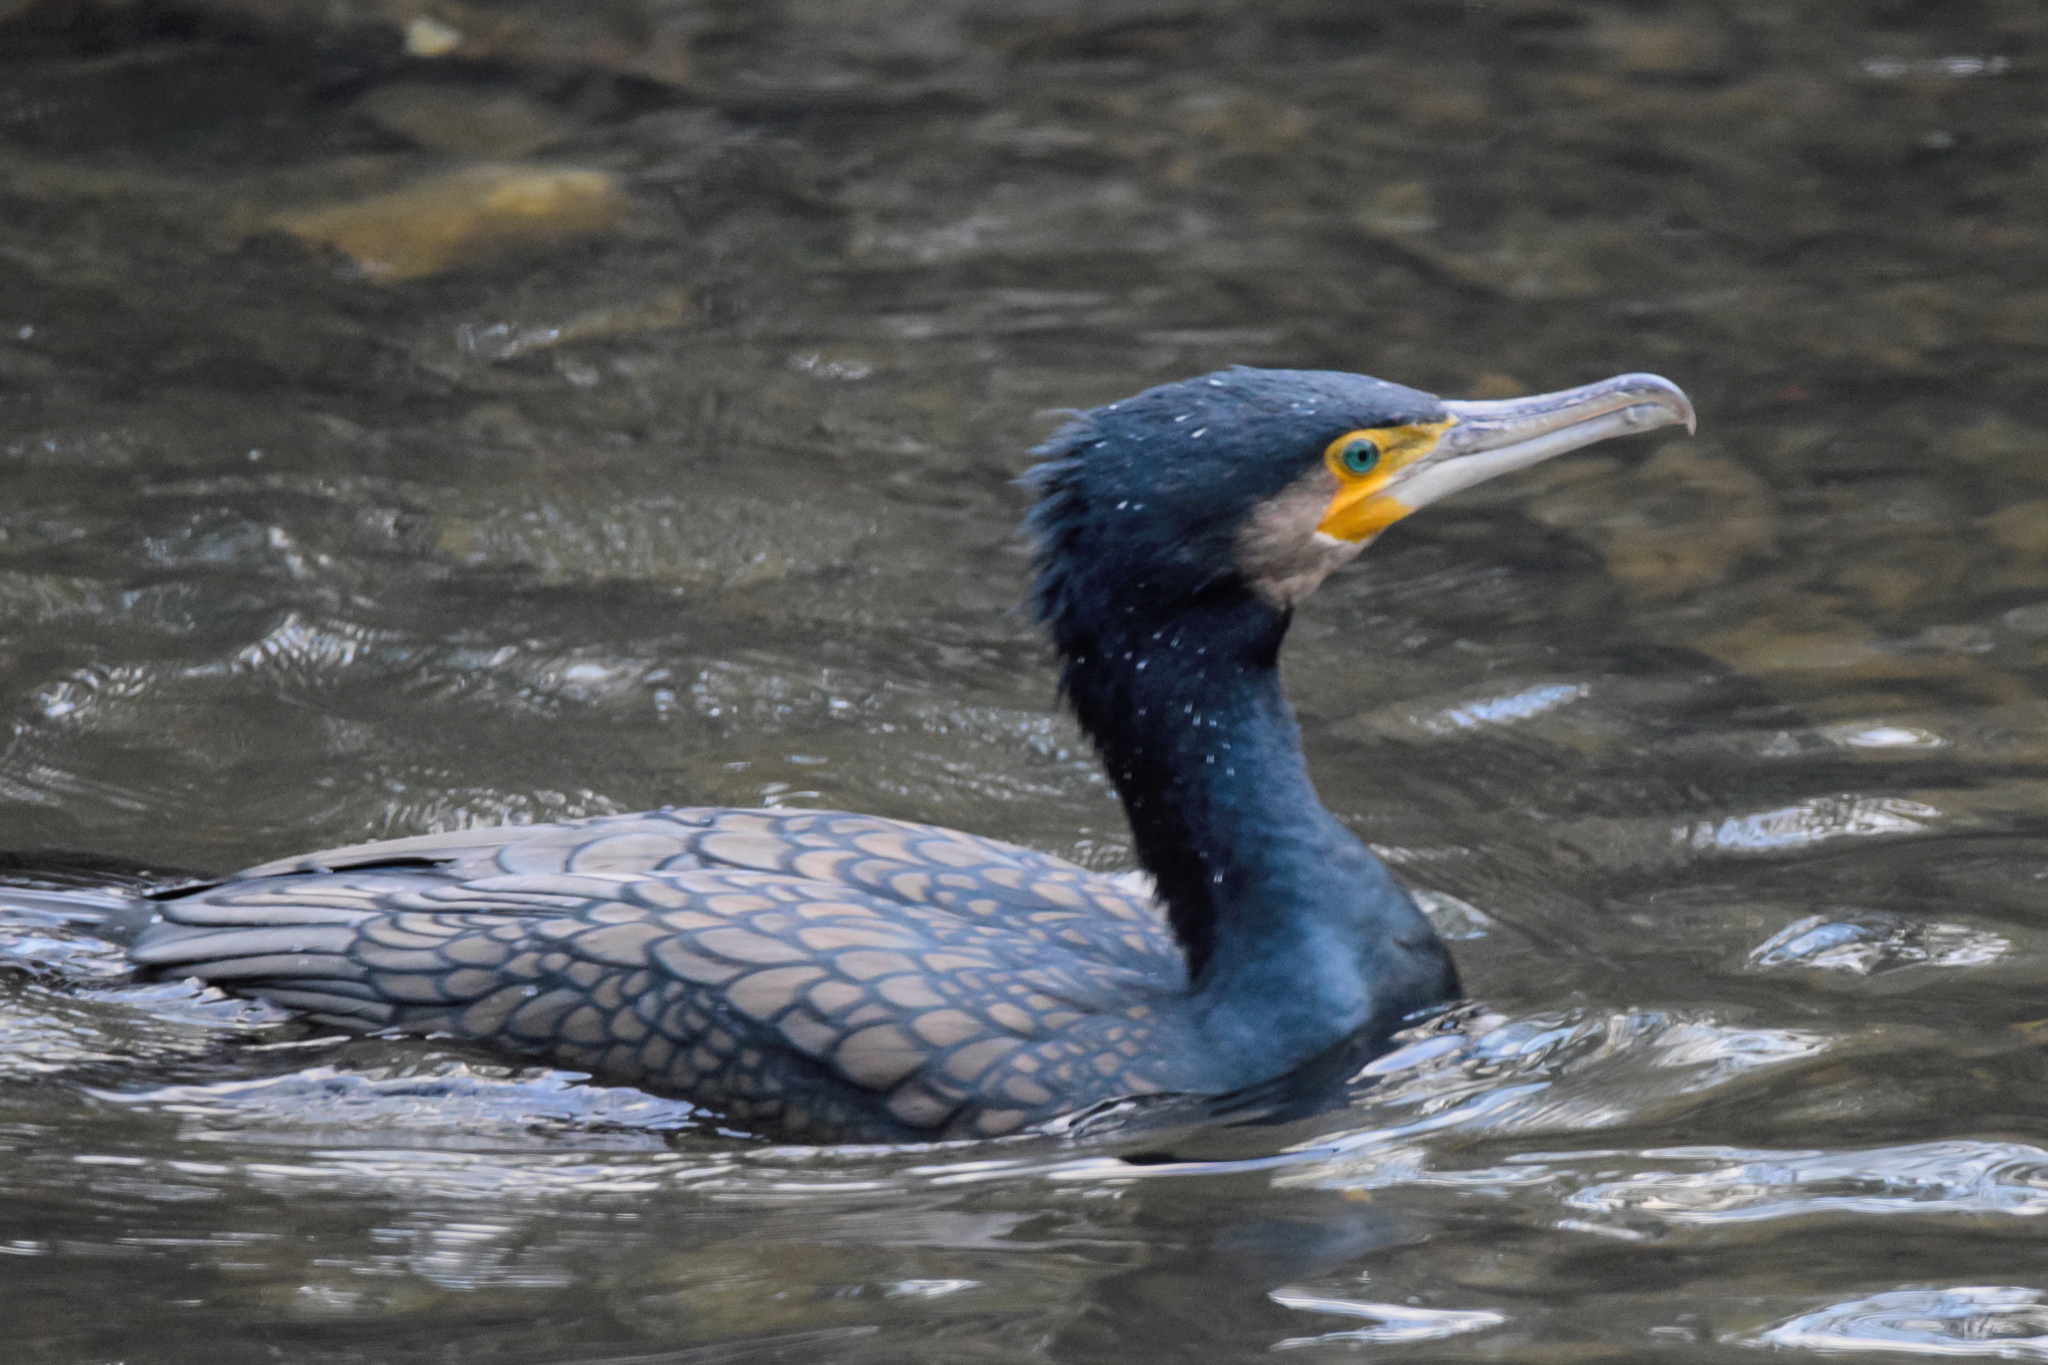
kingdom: Animalia
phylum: Chordata
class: Aves
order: Suliformes
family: Phalacrocoracidae
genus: Phalacrocorax
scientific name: Phalacrocorax carbo
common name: Great cormorant
